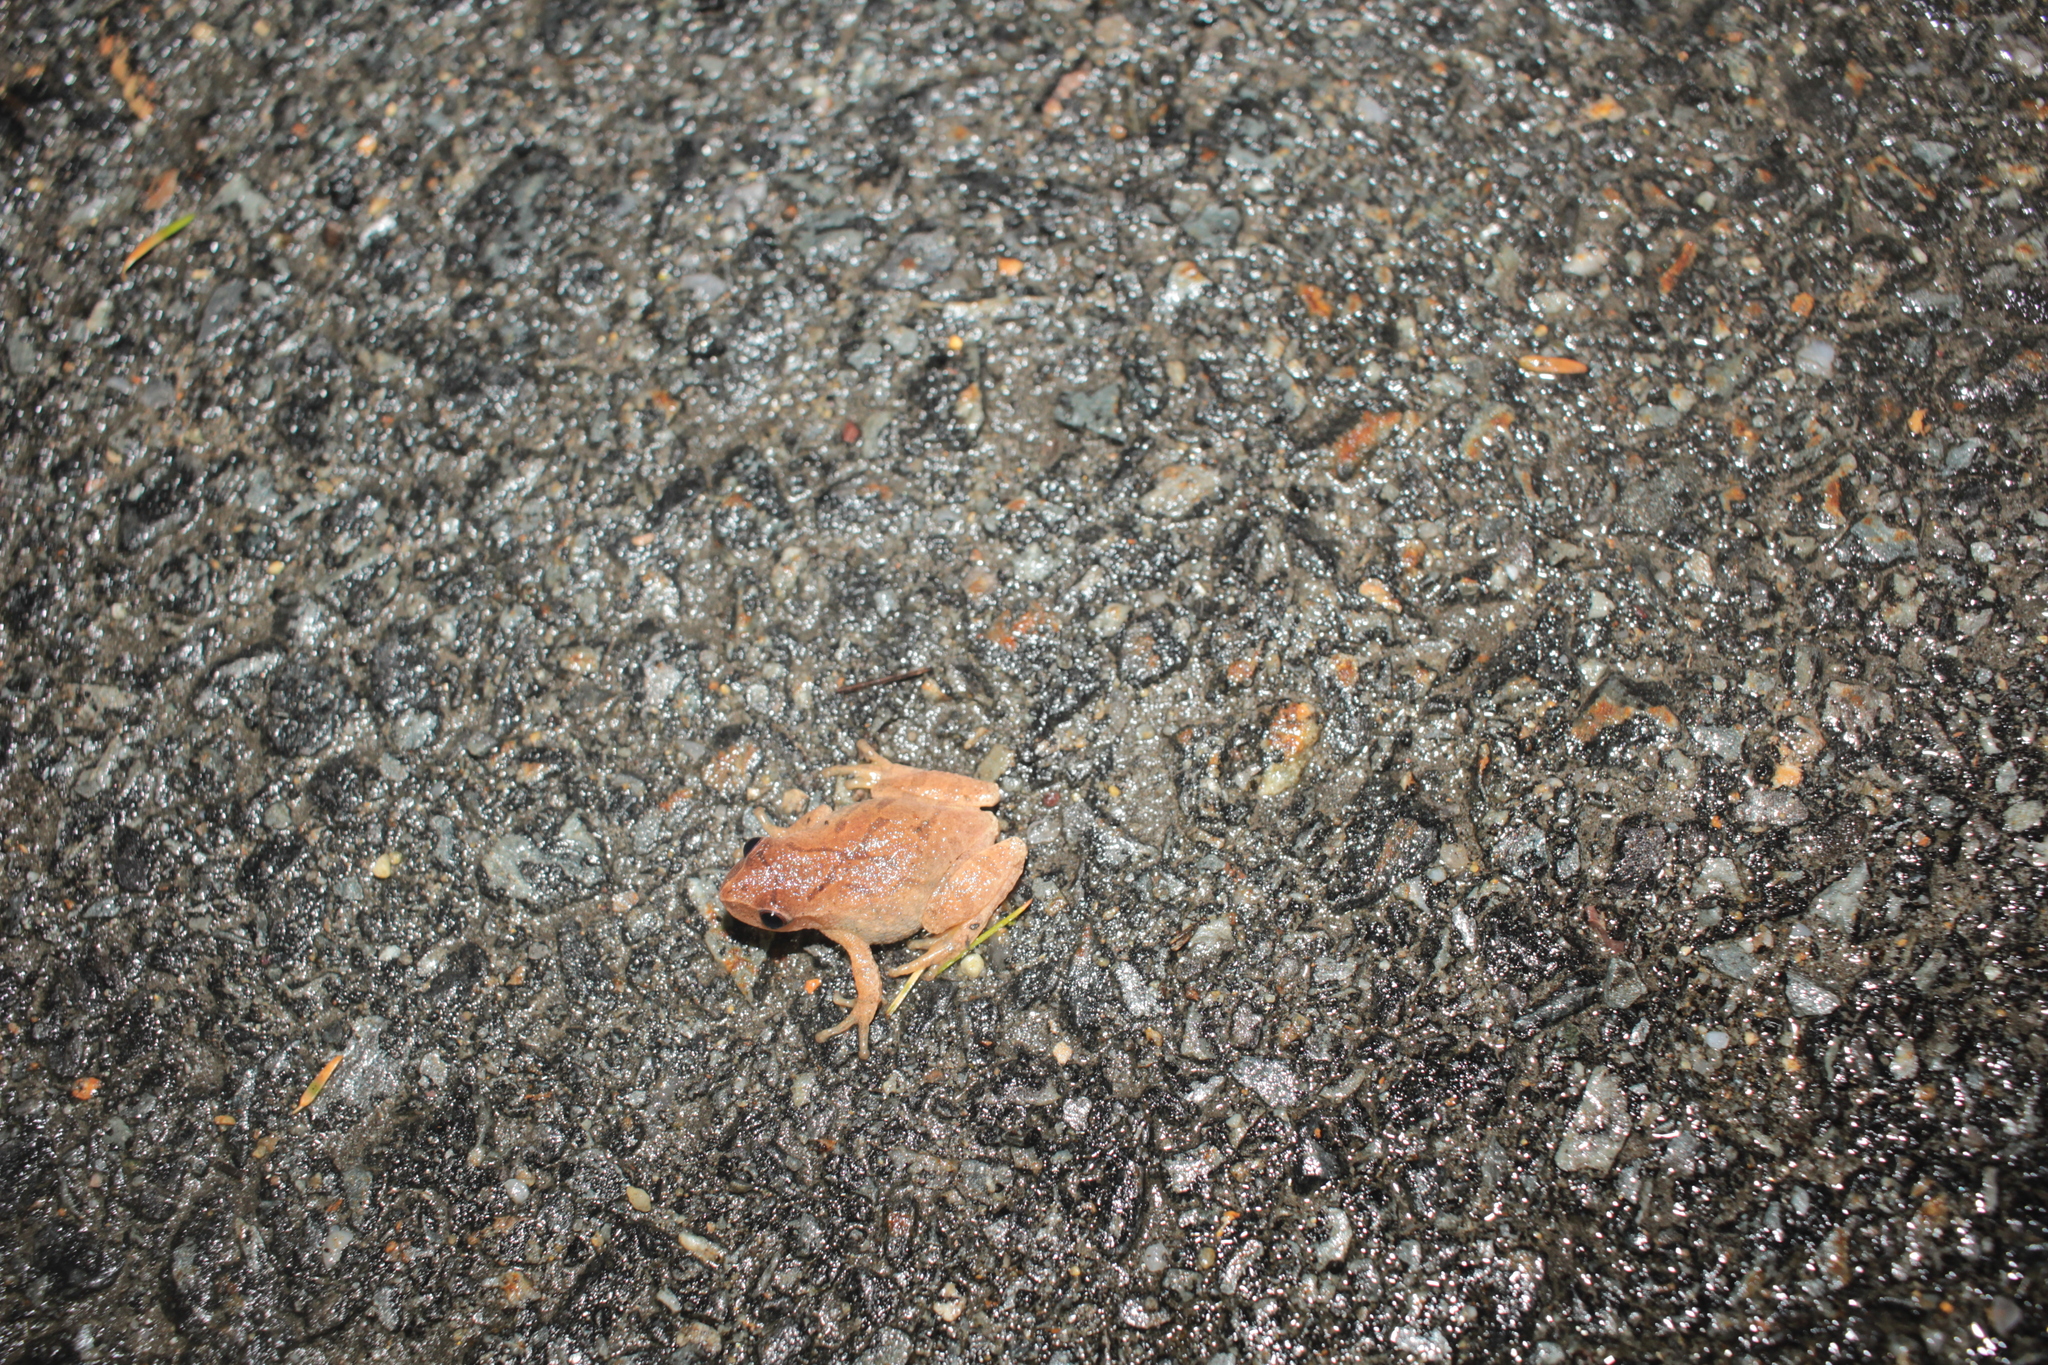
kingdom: Animalia
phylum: Chordata
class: Amphibia
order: Anura
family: Hylidae
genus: Pseudacris
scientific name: Pseudacris crucifer
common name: Spring peeper
